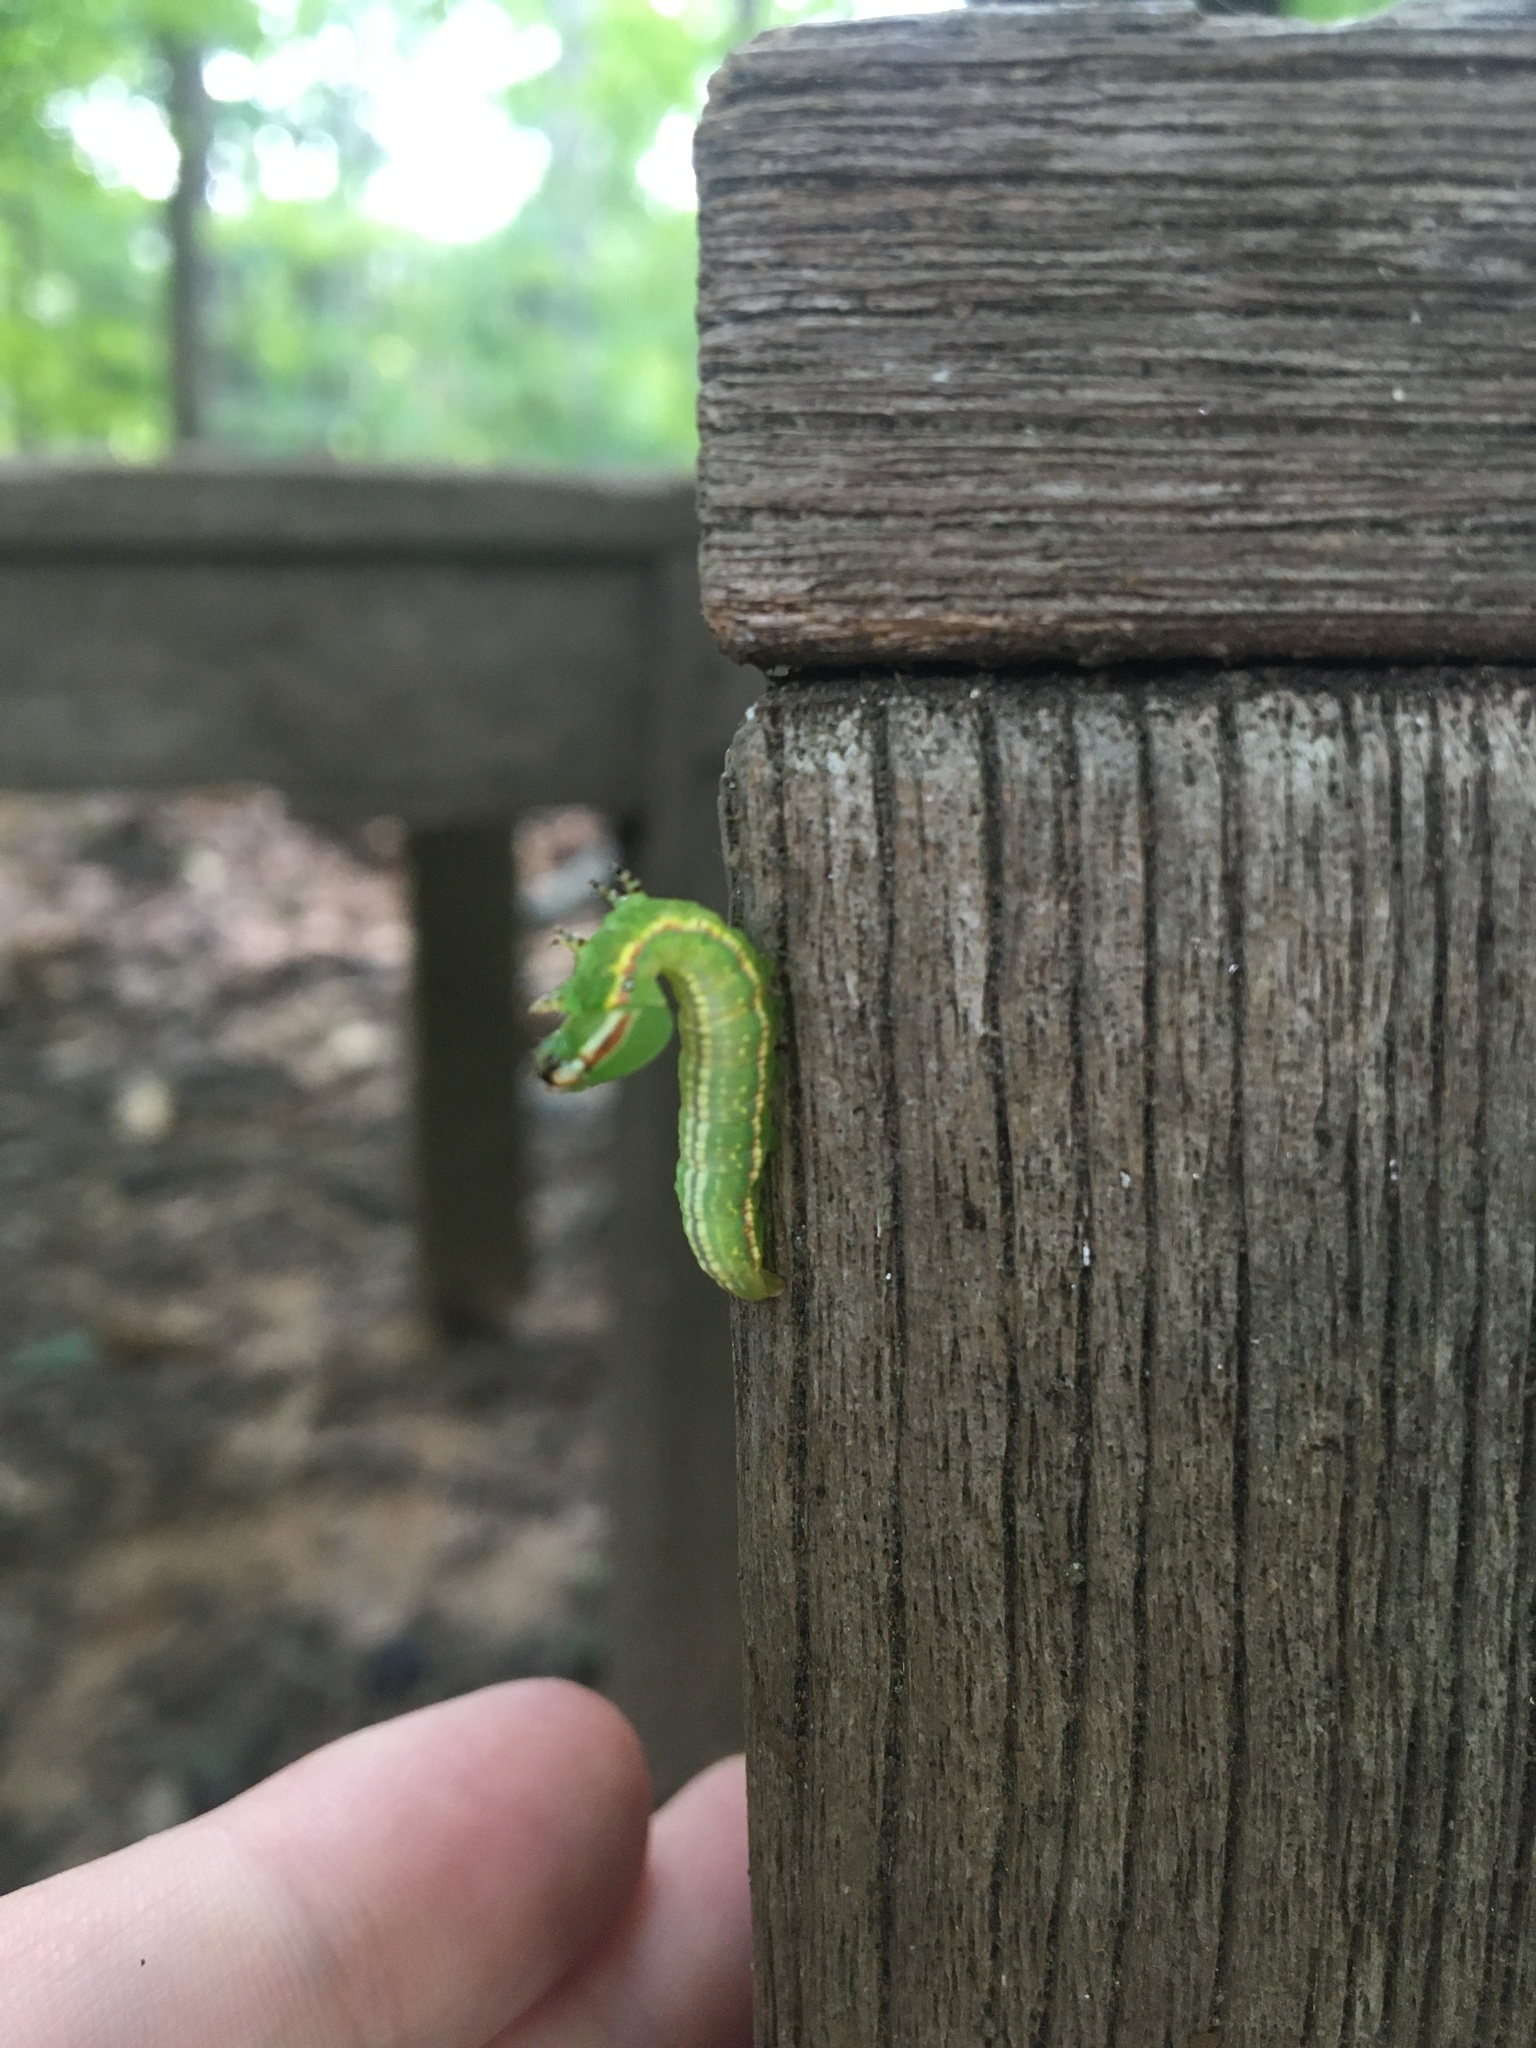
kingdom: Animalia
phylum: Arthropoda
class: Insecta
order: Lepidoptera
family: Notodontidae
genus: Peridea
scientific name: Peridea angulosa
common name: Angulose prominent
